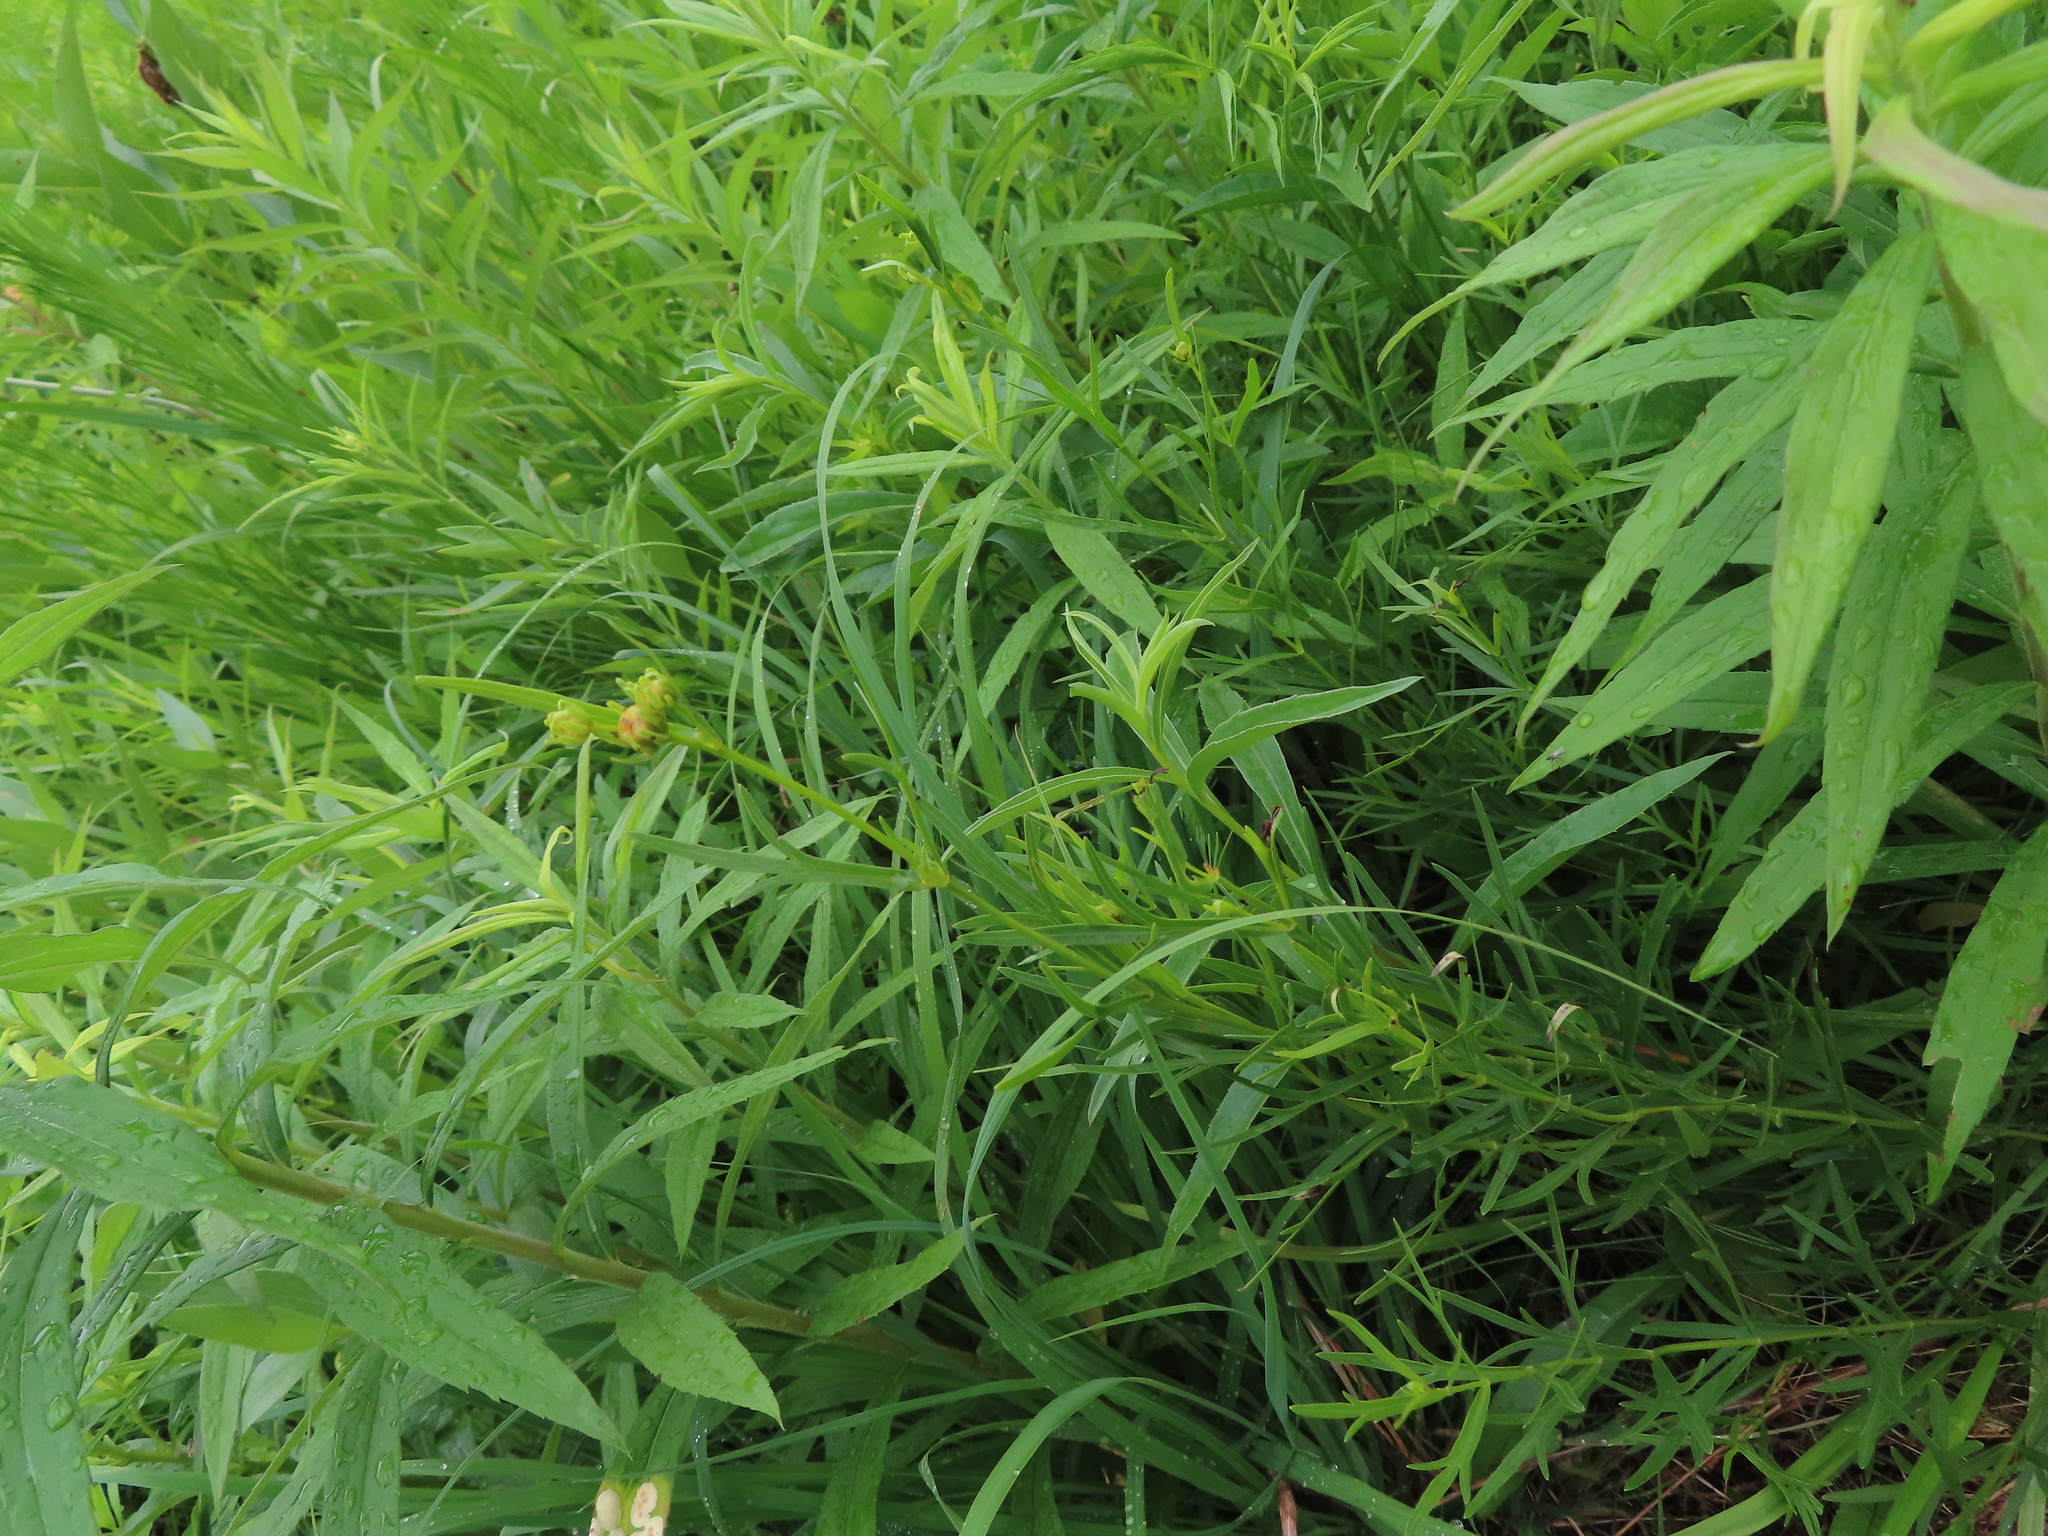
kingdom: Plantae
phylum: Tracheophyta
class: Magnoliopsida
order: Asterales
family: Asteraceae
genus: Coreopsis
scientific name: Coreopsis palmata
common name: Prairie coreopsis
